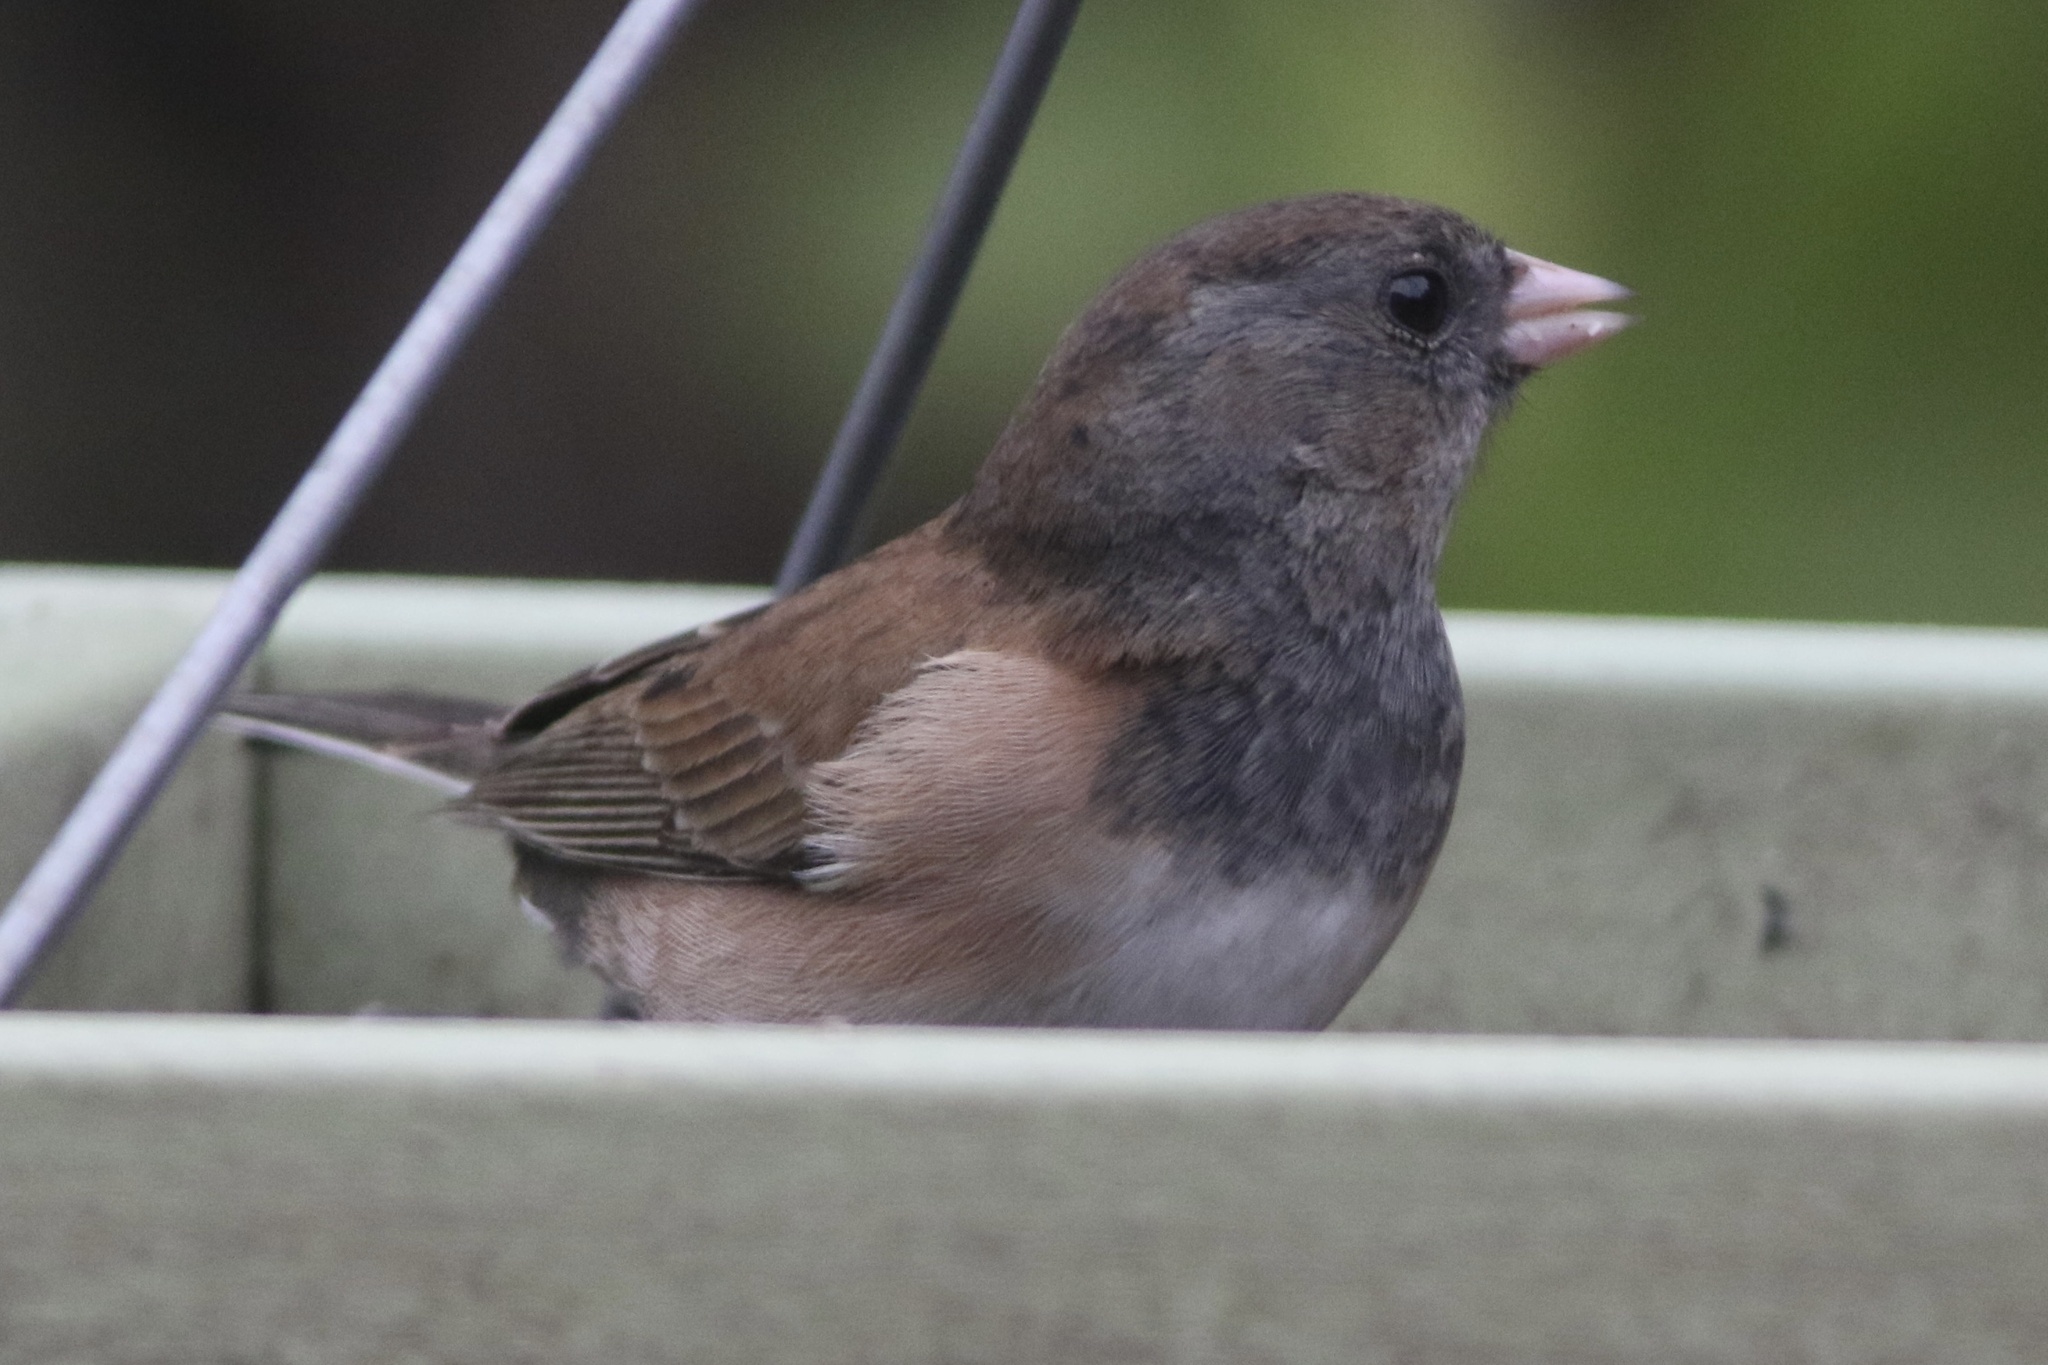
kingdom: Animalia
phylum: Chordata
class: Aves
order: Passeriformes
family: Passerellidae
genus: Junco
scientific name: Junco hyemalis
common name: Dark-eyed junco
